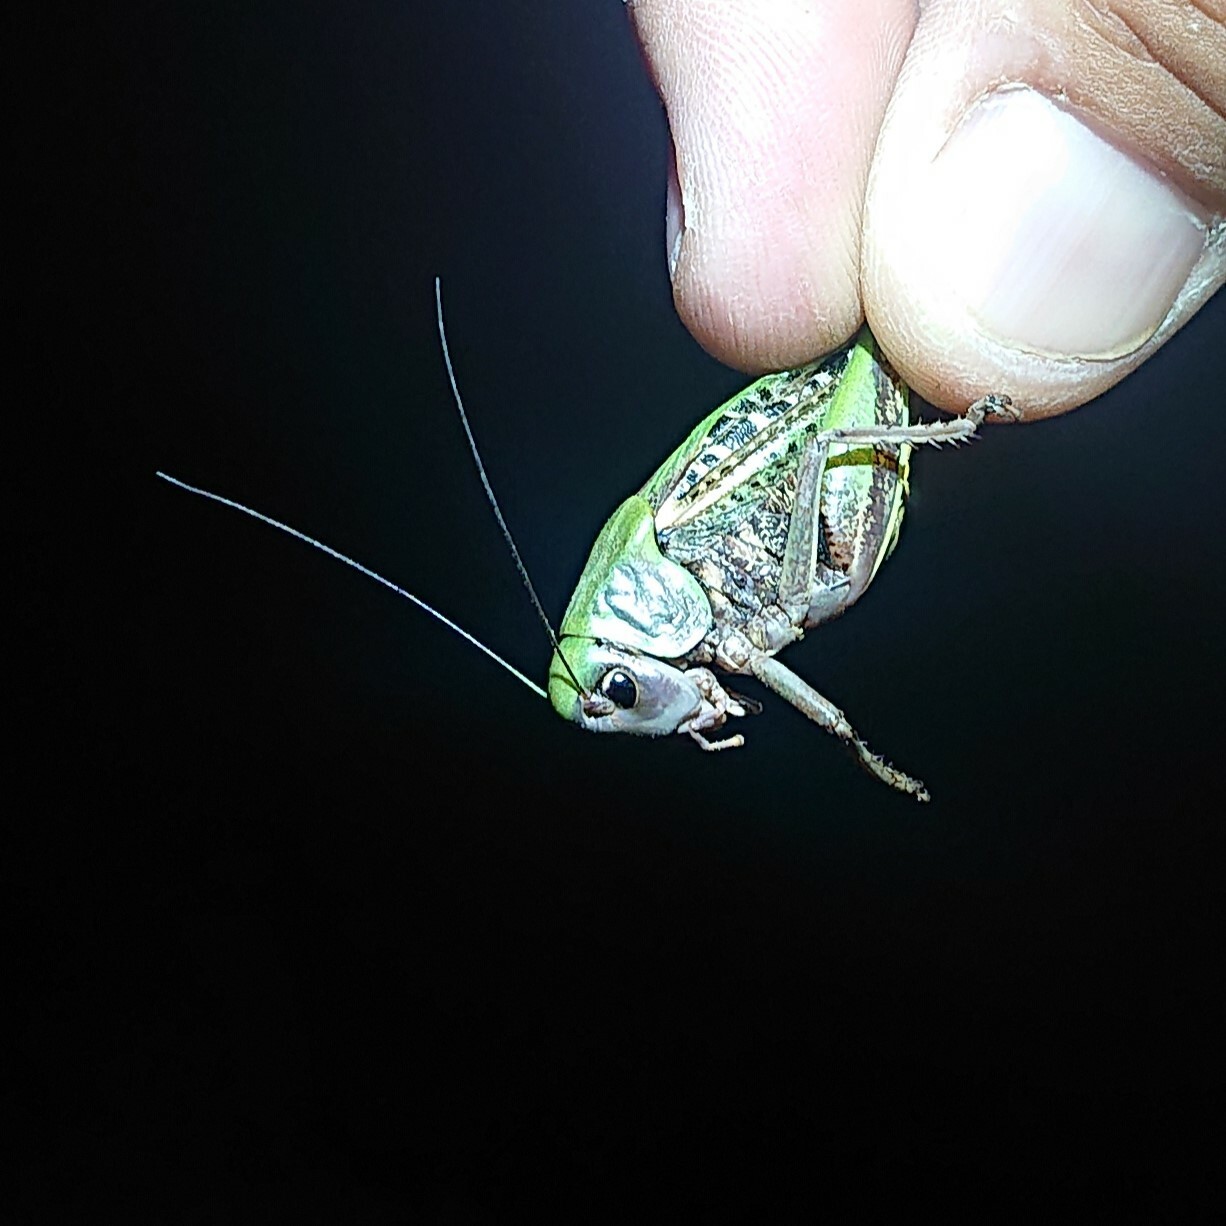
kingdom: Animalia
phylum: Arthropoda
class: Insecta
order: Orthoptera
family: Tettigoniidae
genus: Decticus
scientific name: Decticus verrucivorus
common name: Wart-biter
